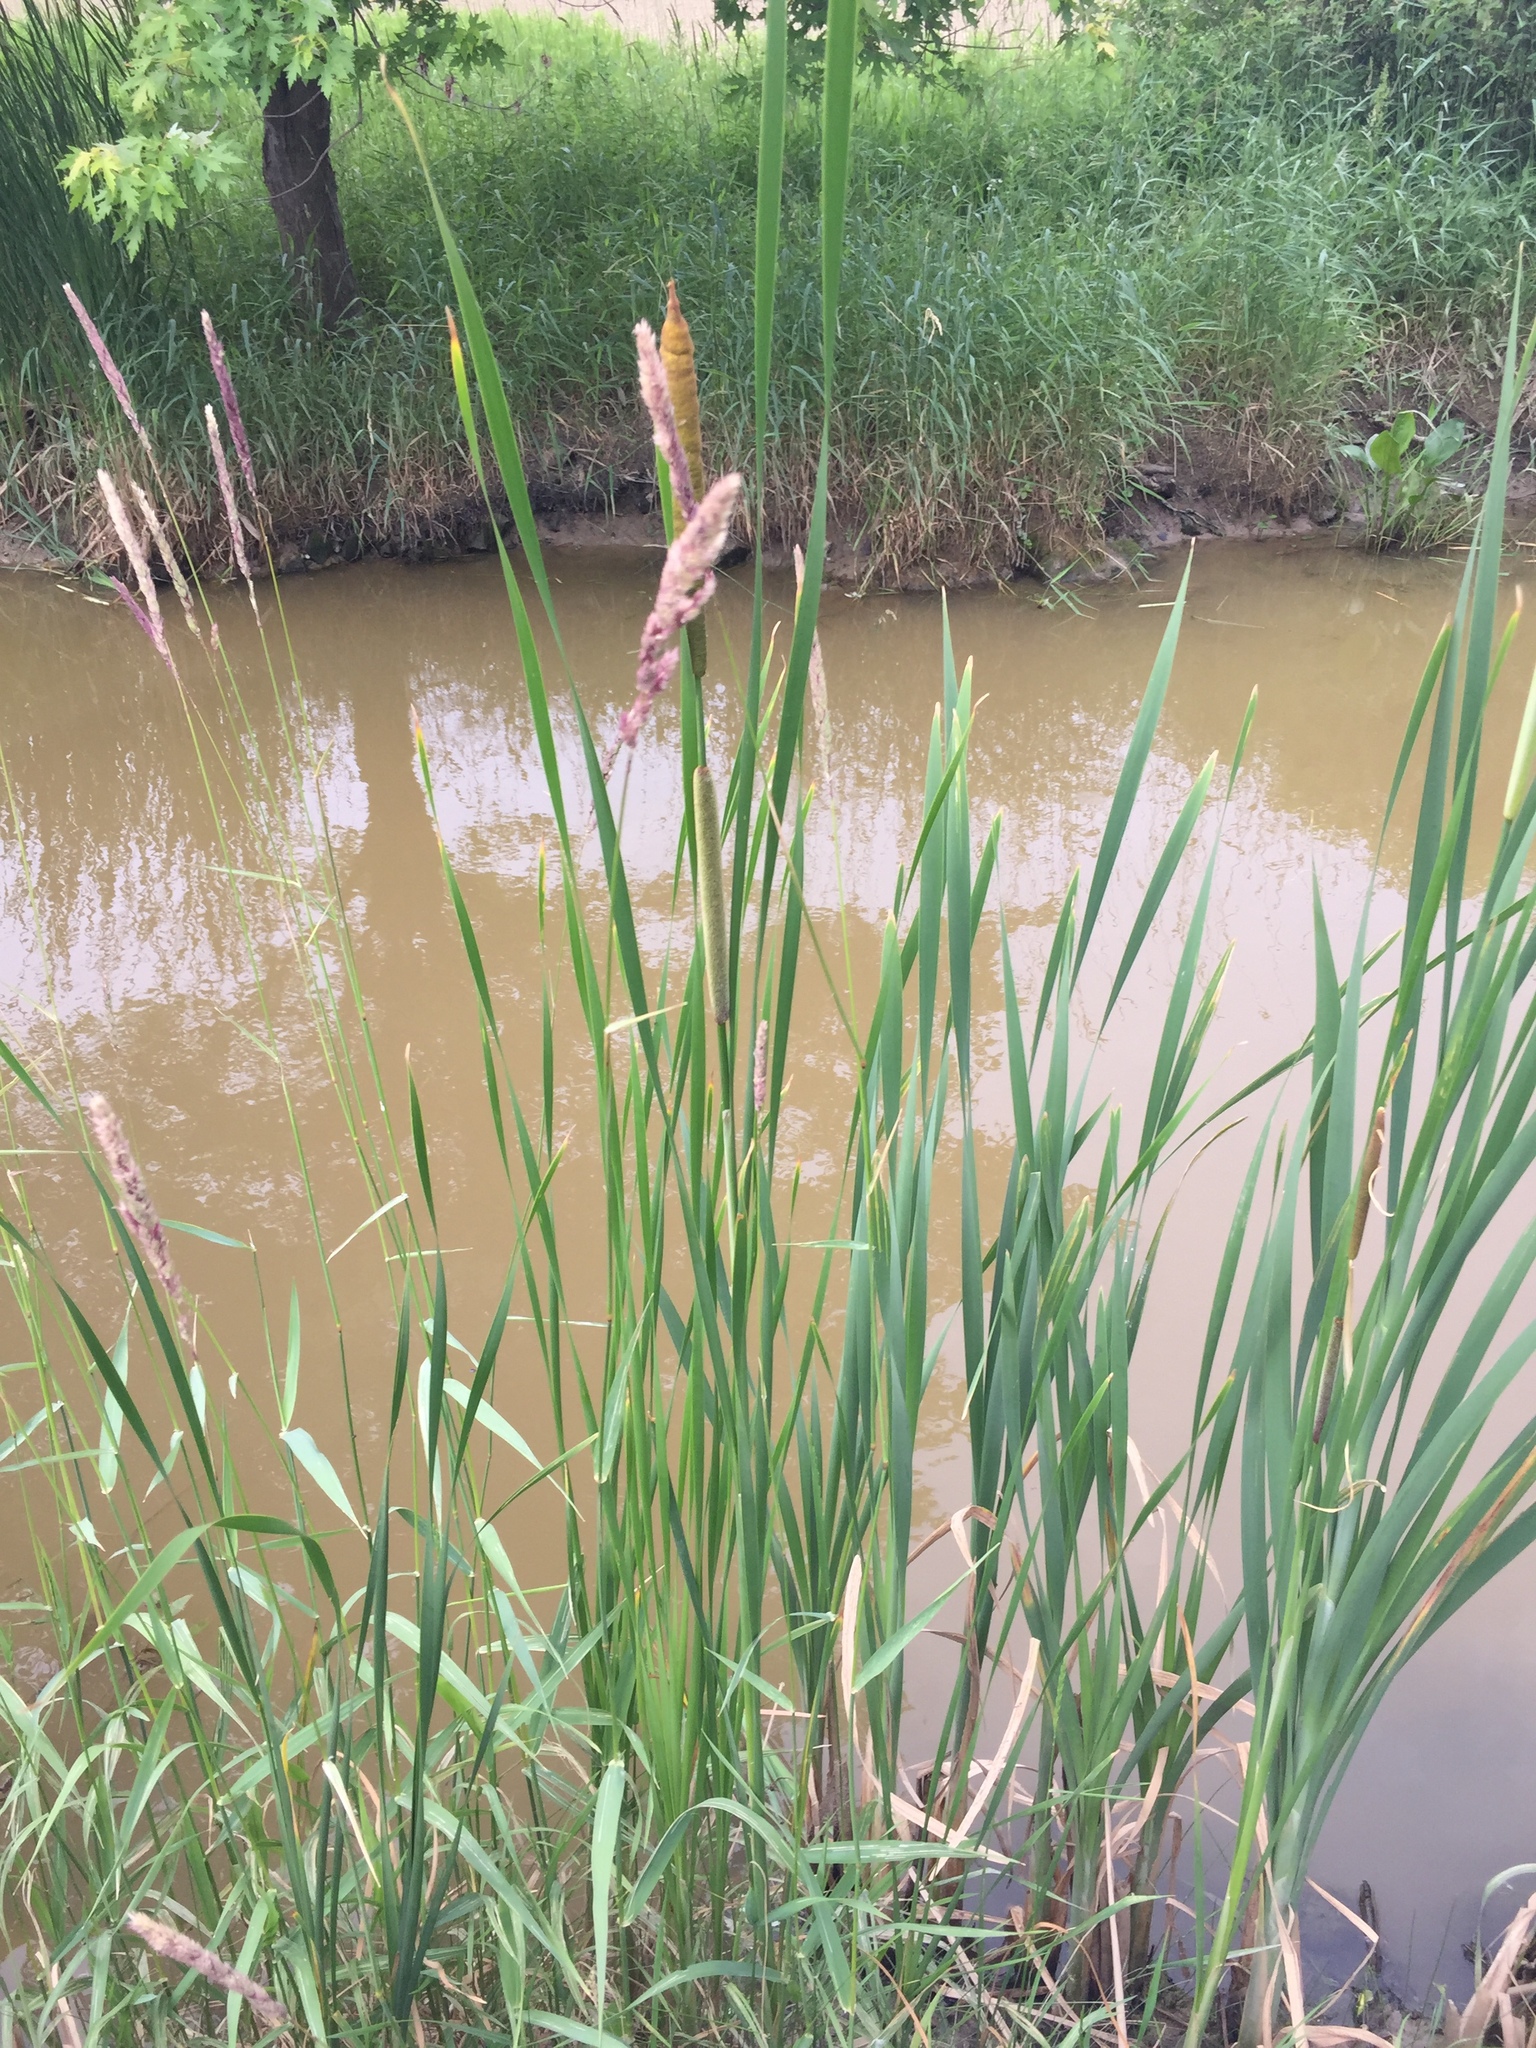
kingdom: Plantae
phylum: Tracheophyta
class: Liliopsida
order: Poales
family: Typhaceae
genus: Typha
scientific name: Typha angustifolia
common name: Lesser bulrush
